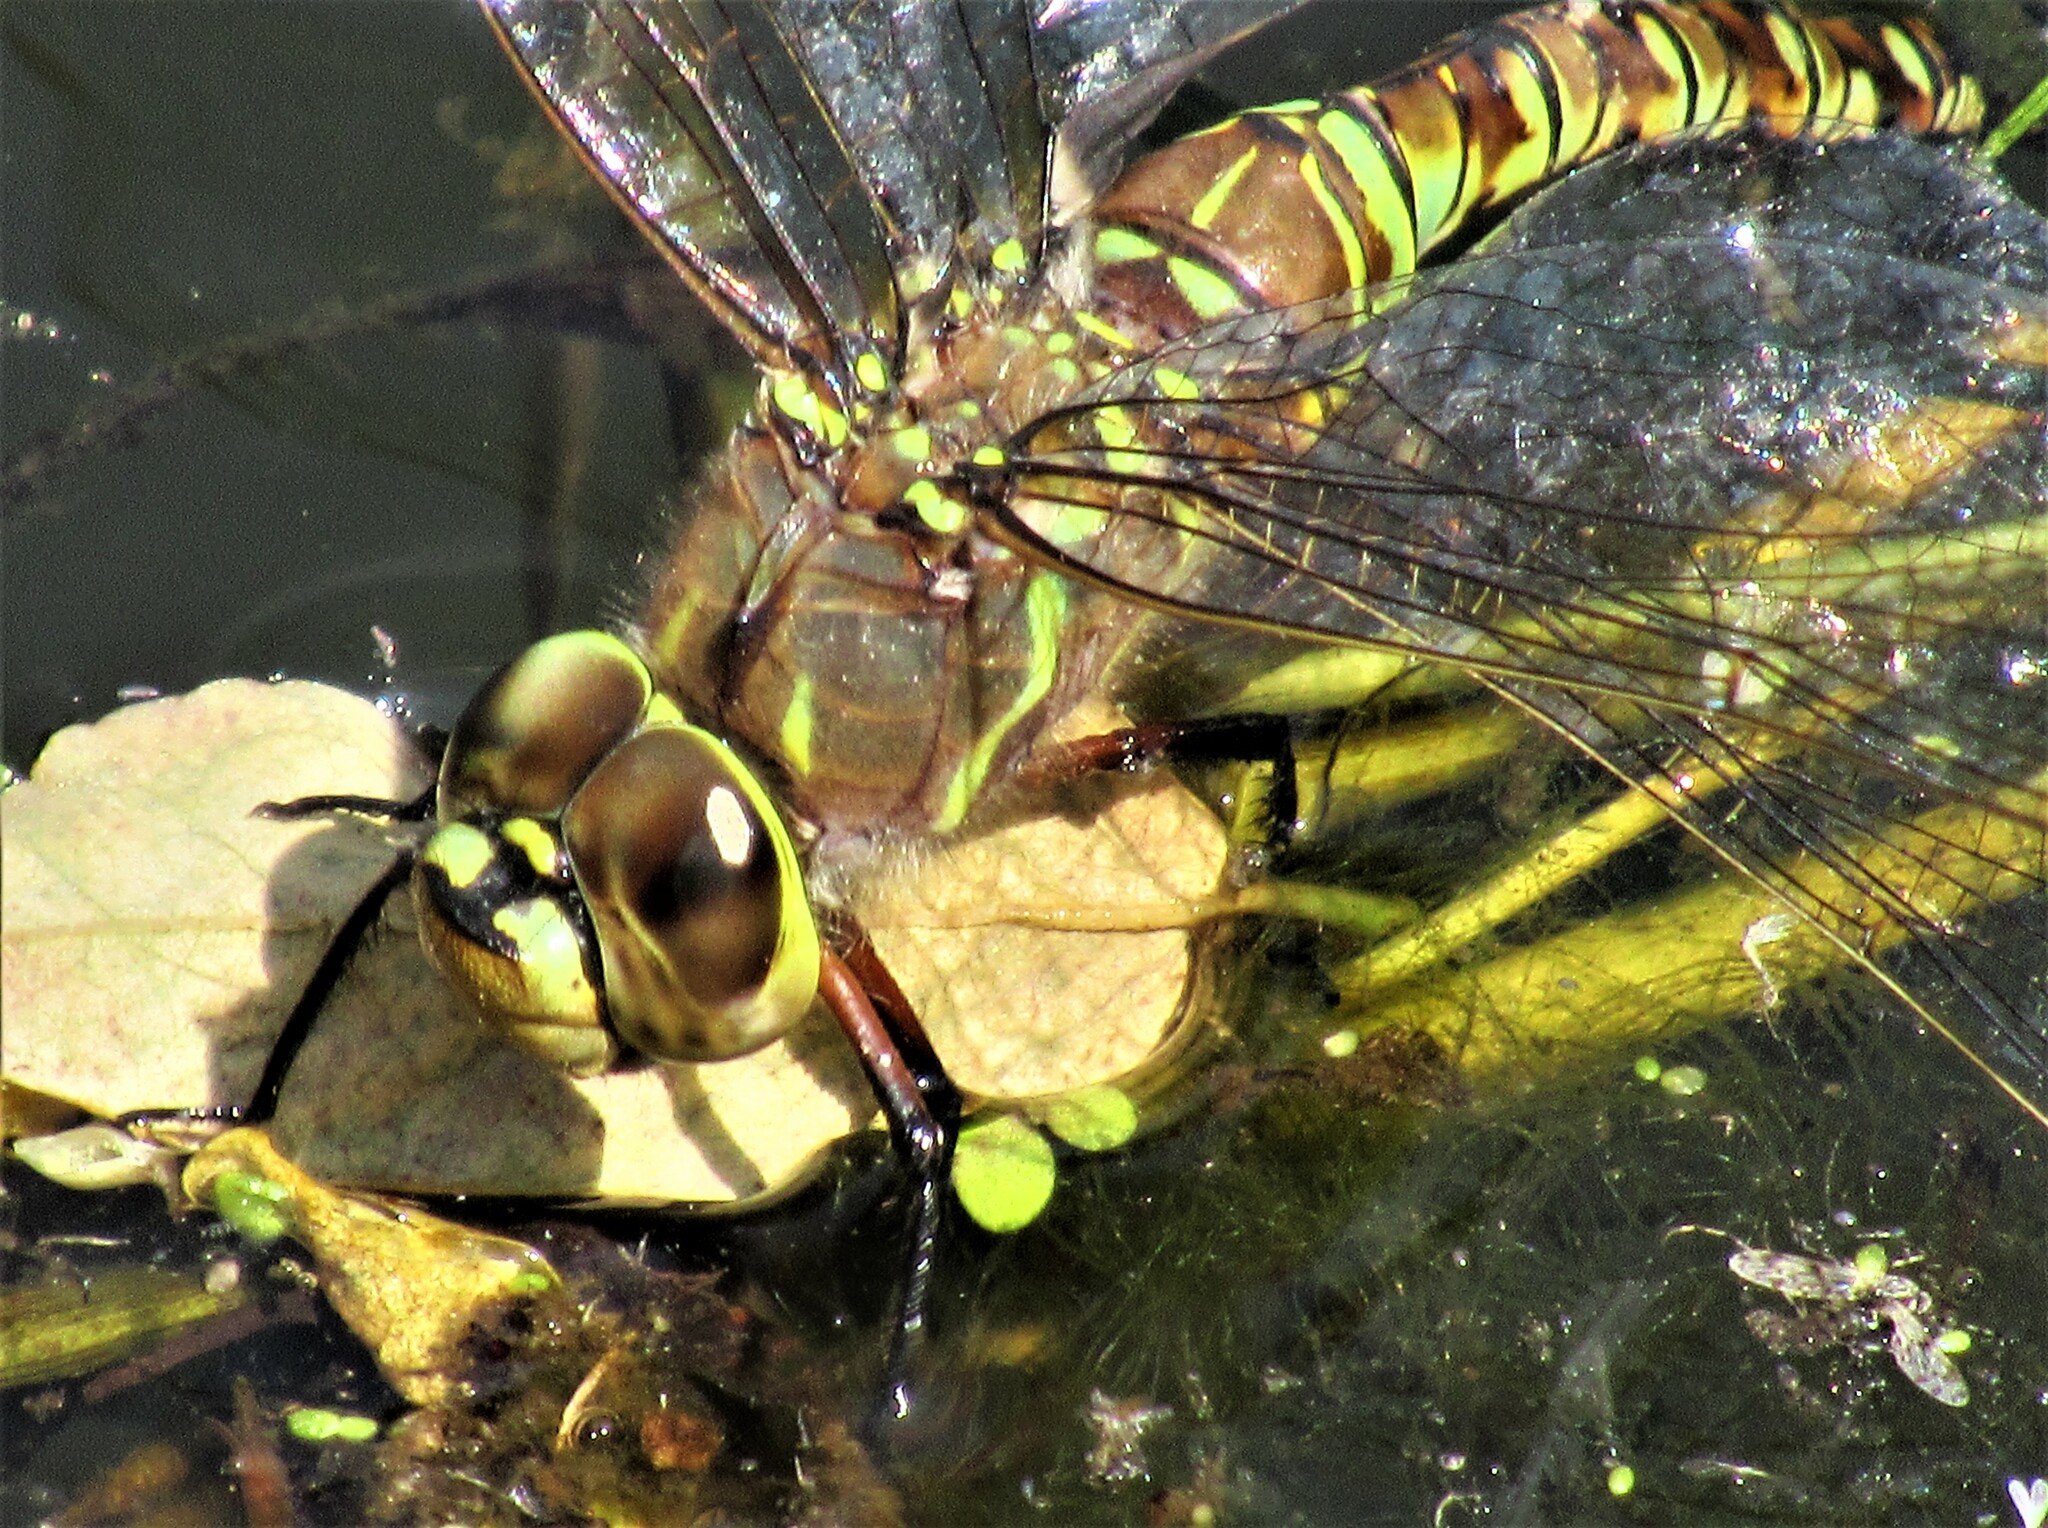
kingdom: Animalia
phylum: Arthropoda
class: Insecta
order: Odonata
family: Aeshnidae
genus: Rhionaeschna
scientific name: Rhionaeschna multicolor
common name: Blue-eyed darner
